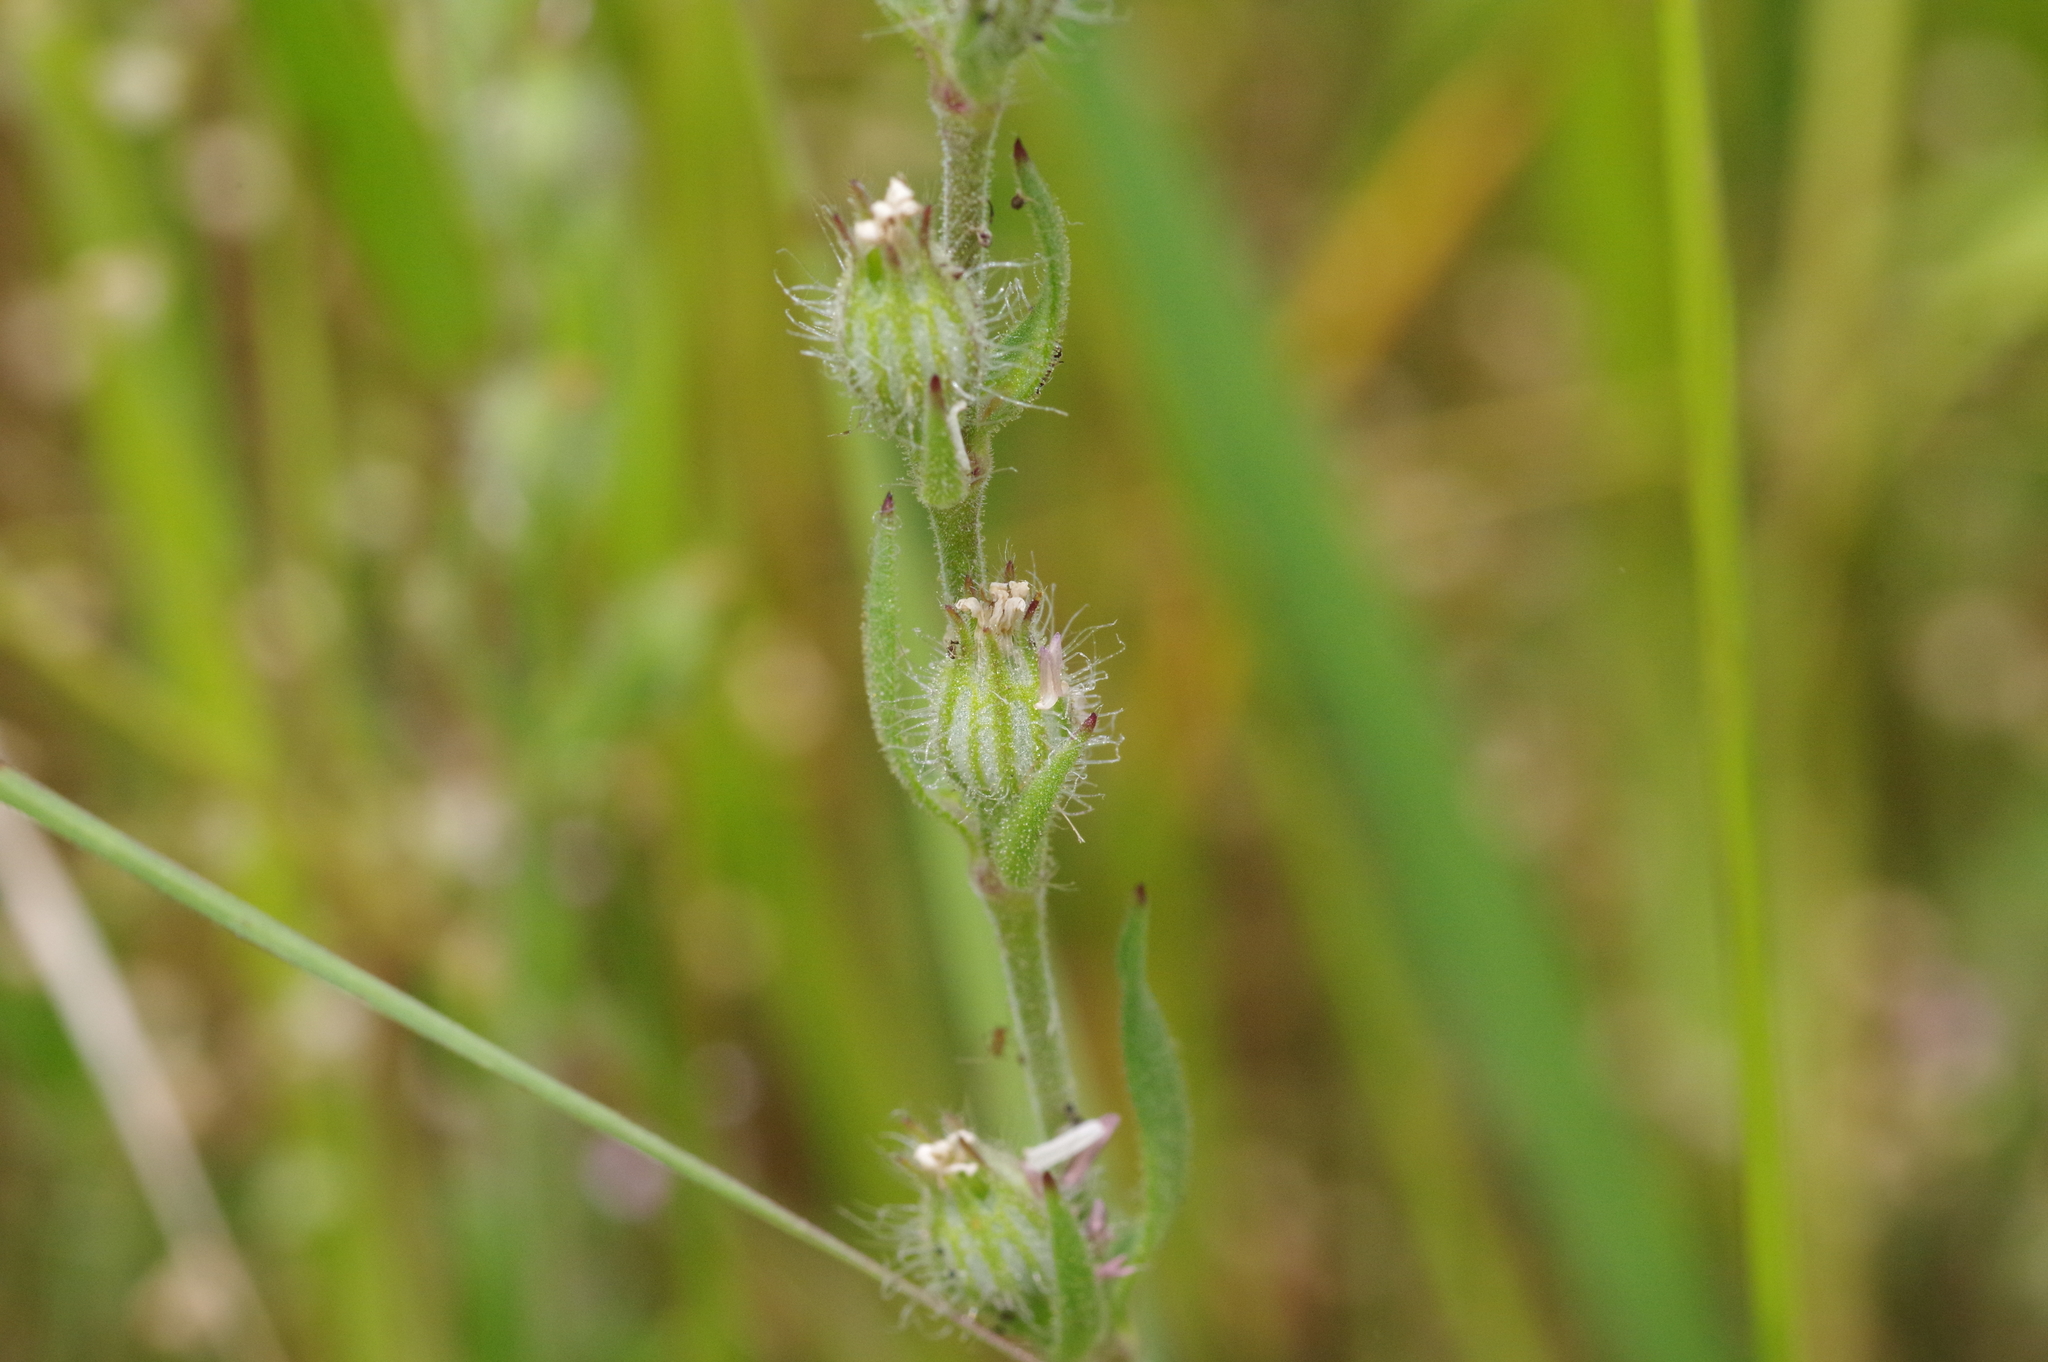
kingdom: Plantae
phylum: Tracheophyta
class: Magnoliopsida
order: Caryophyllales
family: Caryophyllaceae
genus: Silene
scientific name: Silene gallica
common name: Small-flowered catchfly
